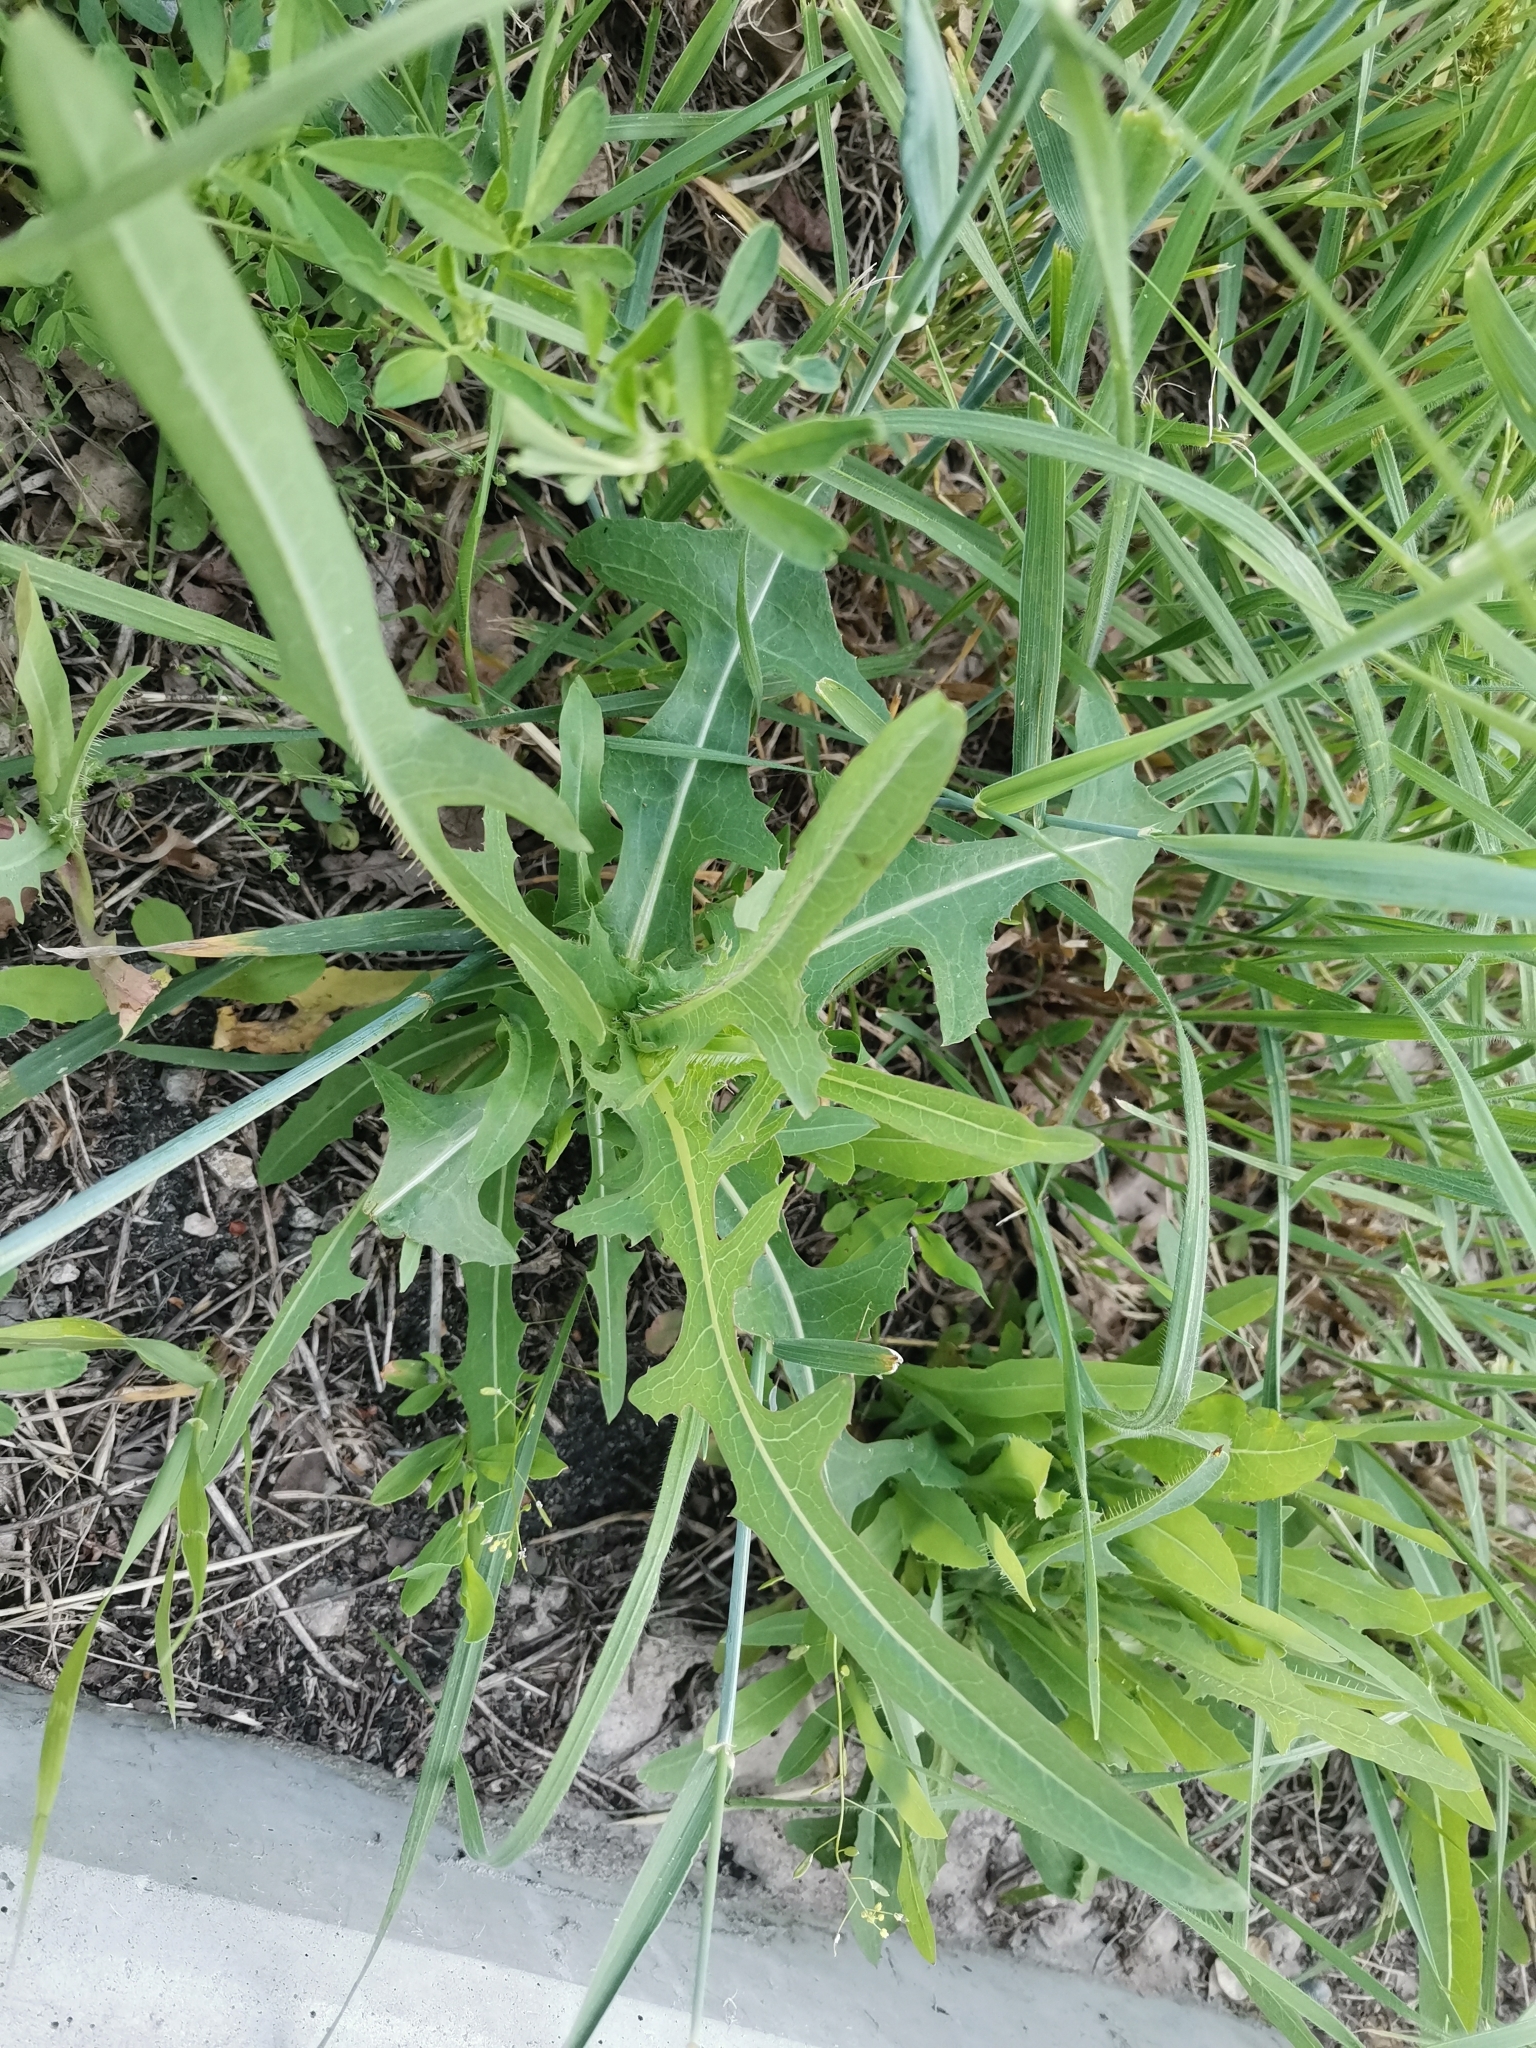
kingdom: Plantae
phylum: Tracheophyta
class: Magnoliopsida
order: Asterales
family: Asteraceae
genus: Lactuca
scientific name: Lactuca serriola
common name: Prickly lettuce
